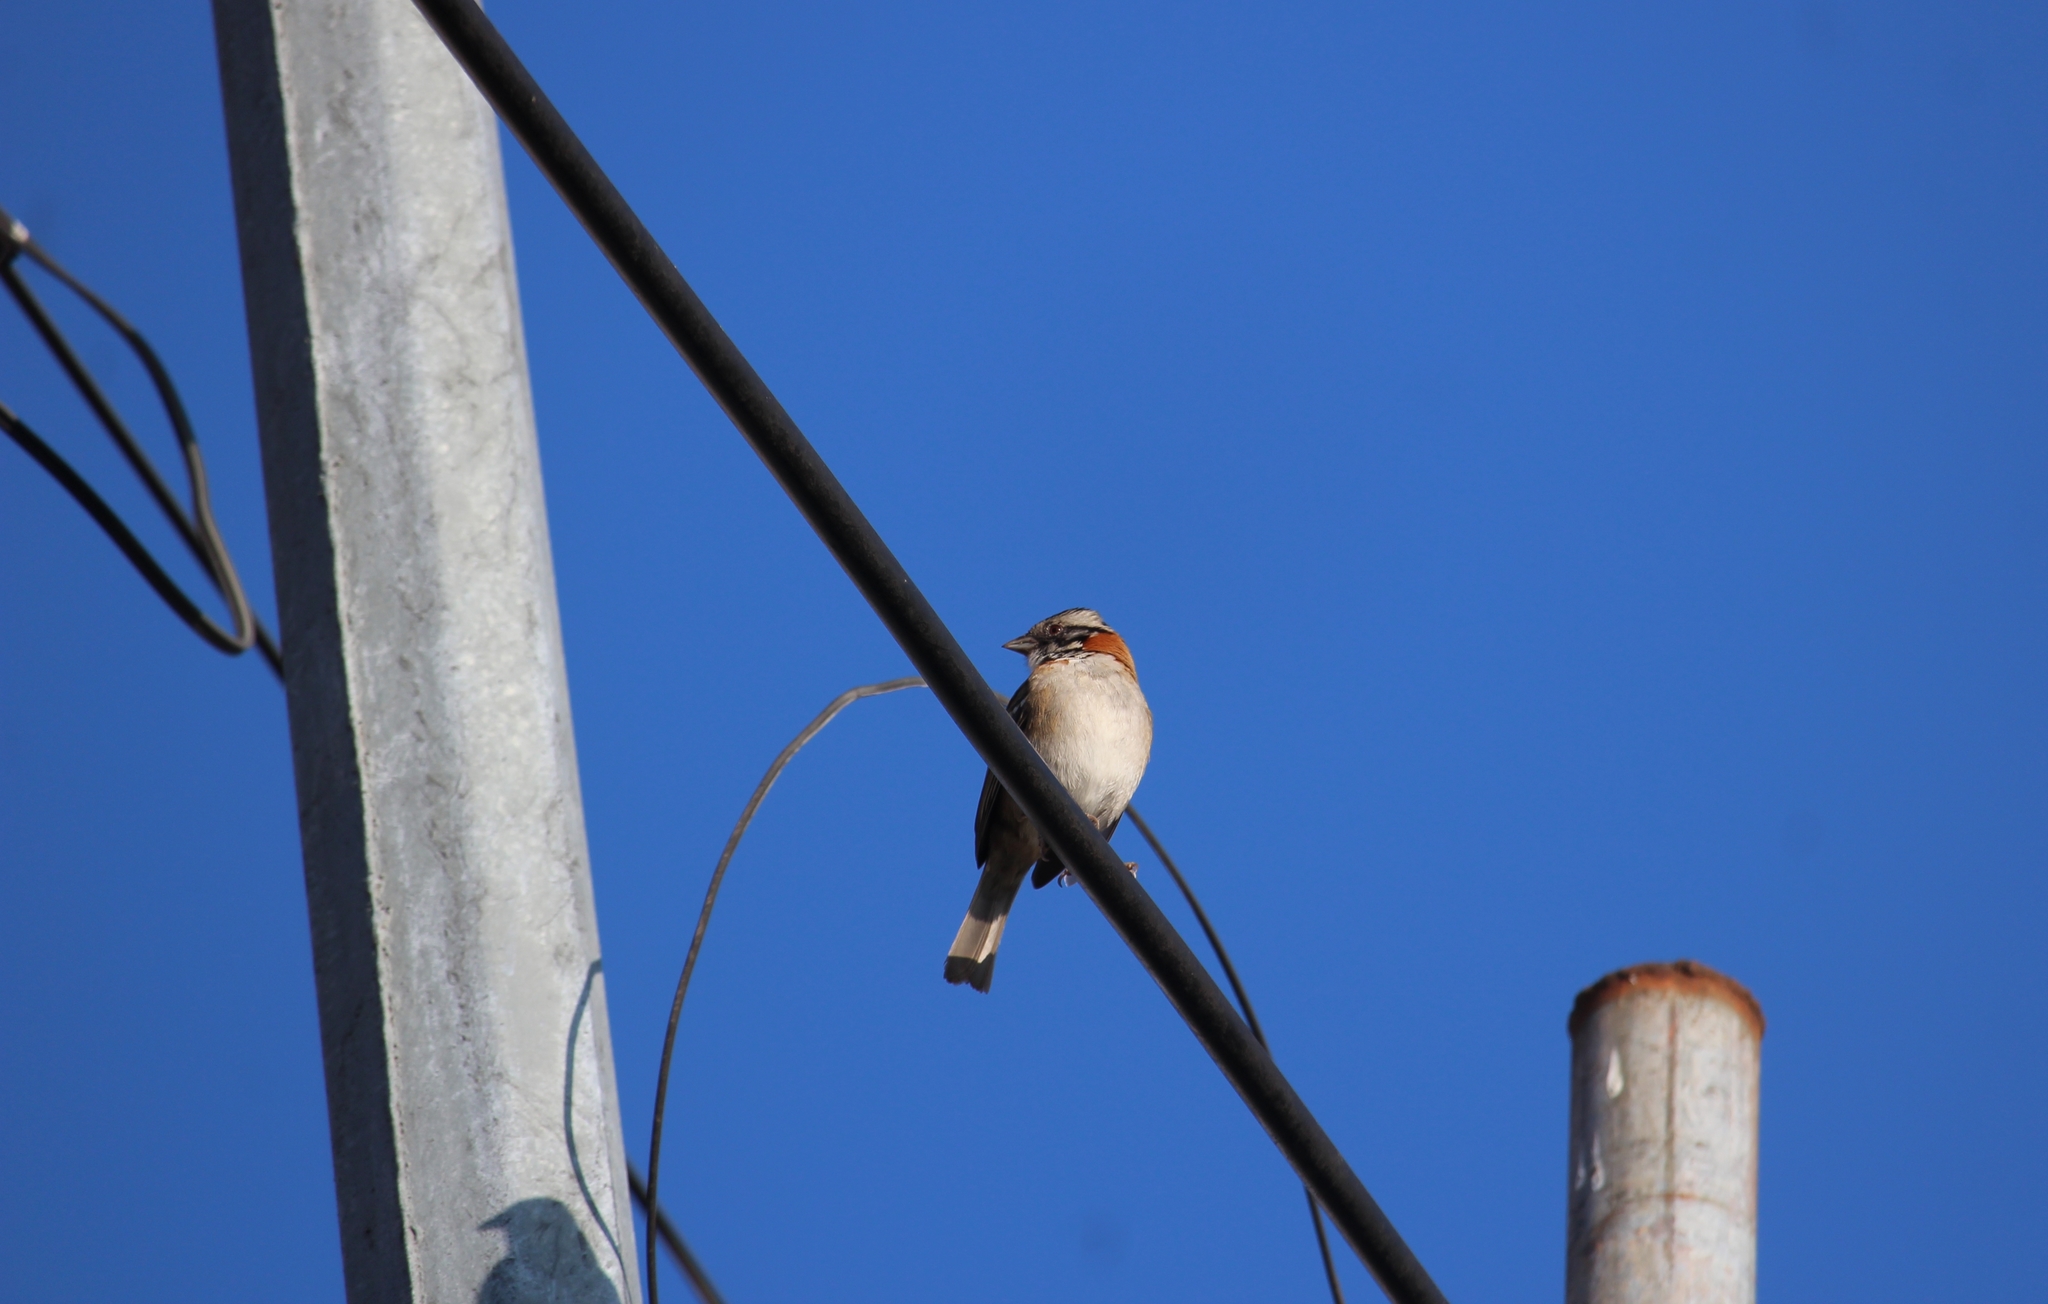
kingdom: Animalia
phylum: Chordata
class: Aves
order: Passeriformes
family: Passerellidae
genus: Zonotrichia
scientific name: Zonotrichia capensis
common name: Rufous-collared sparrow
